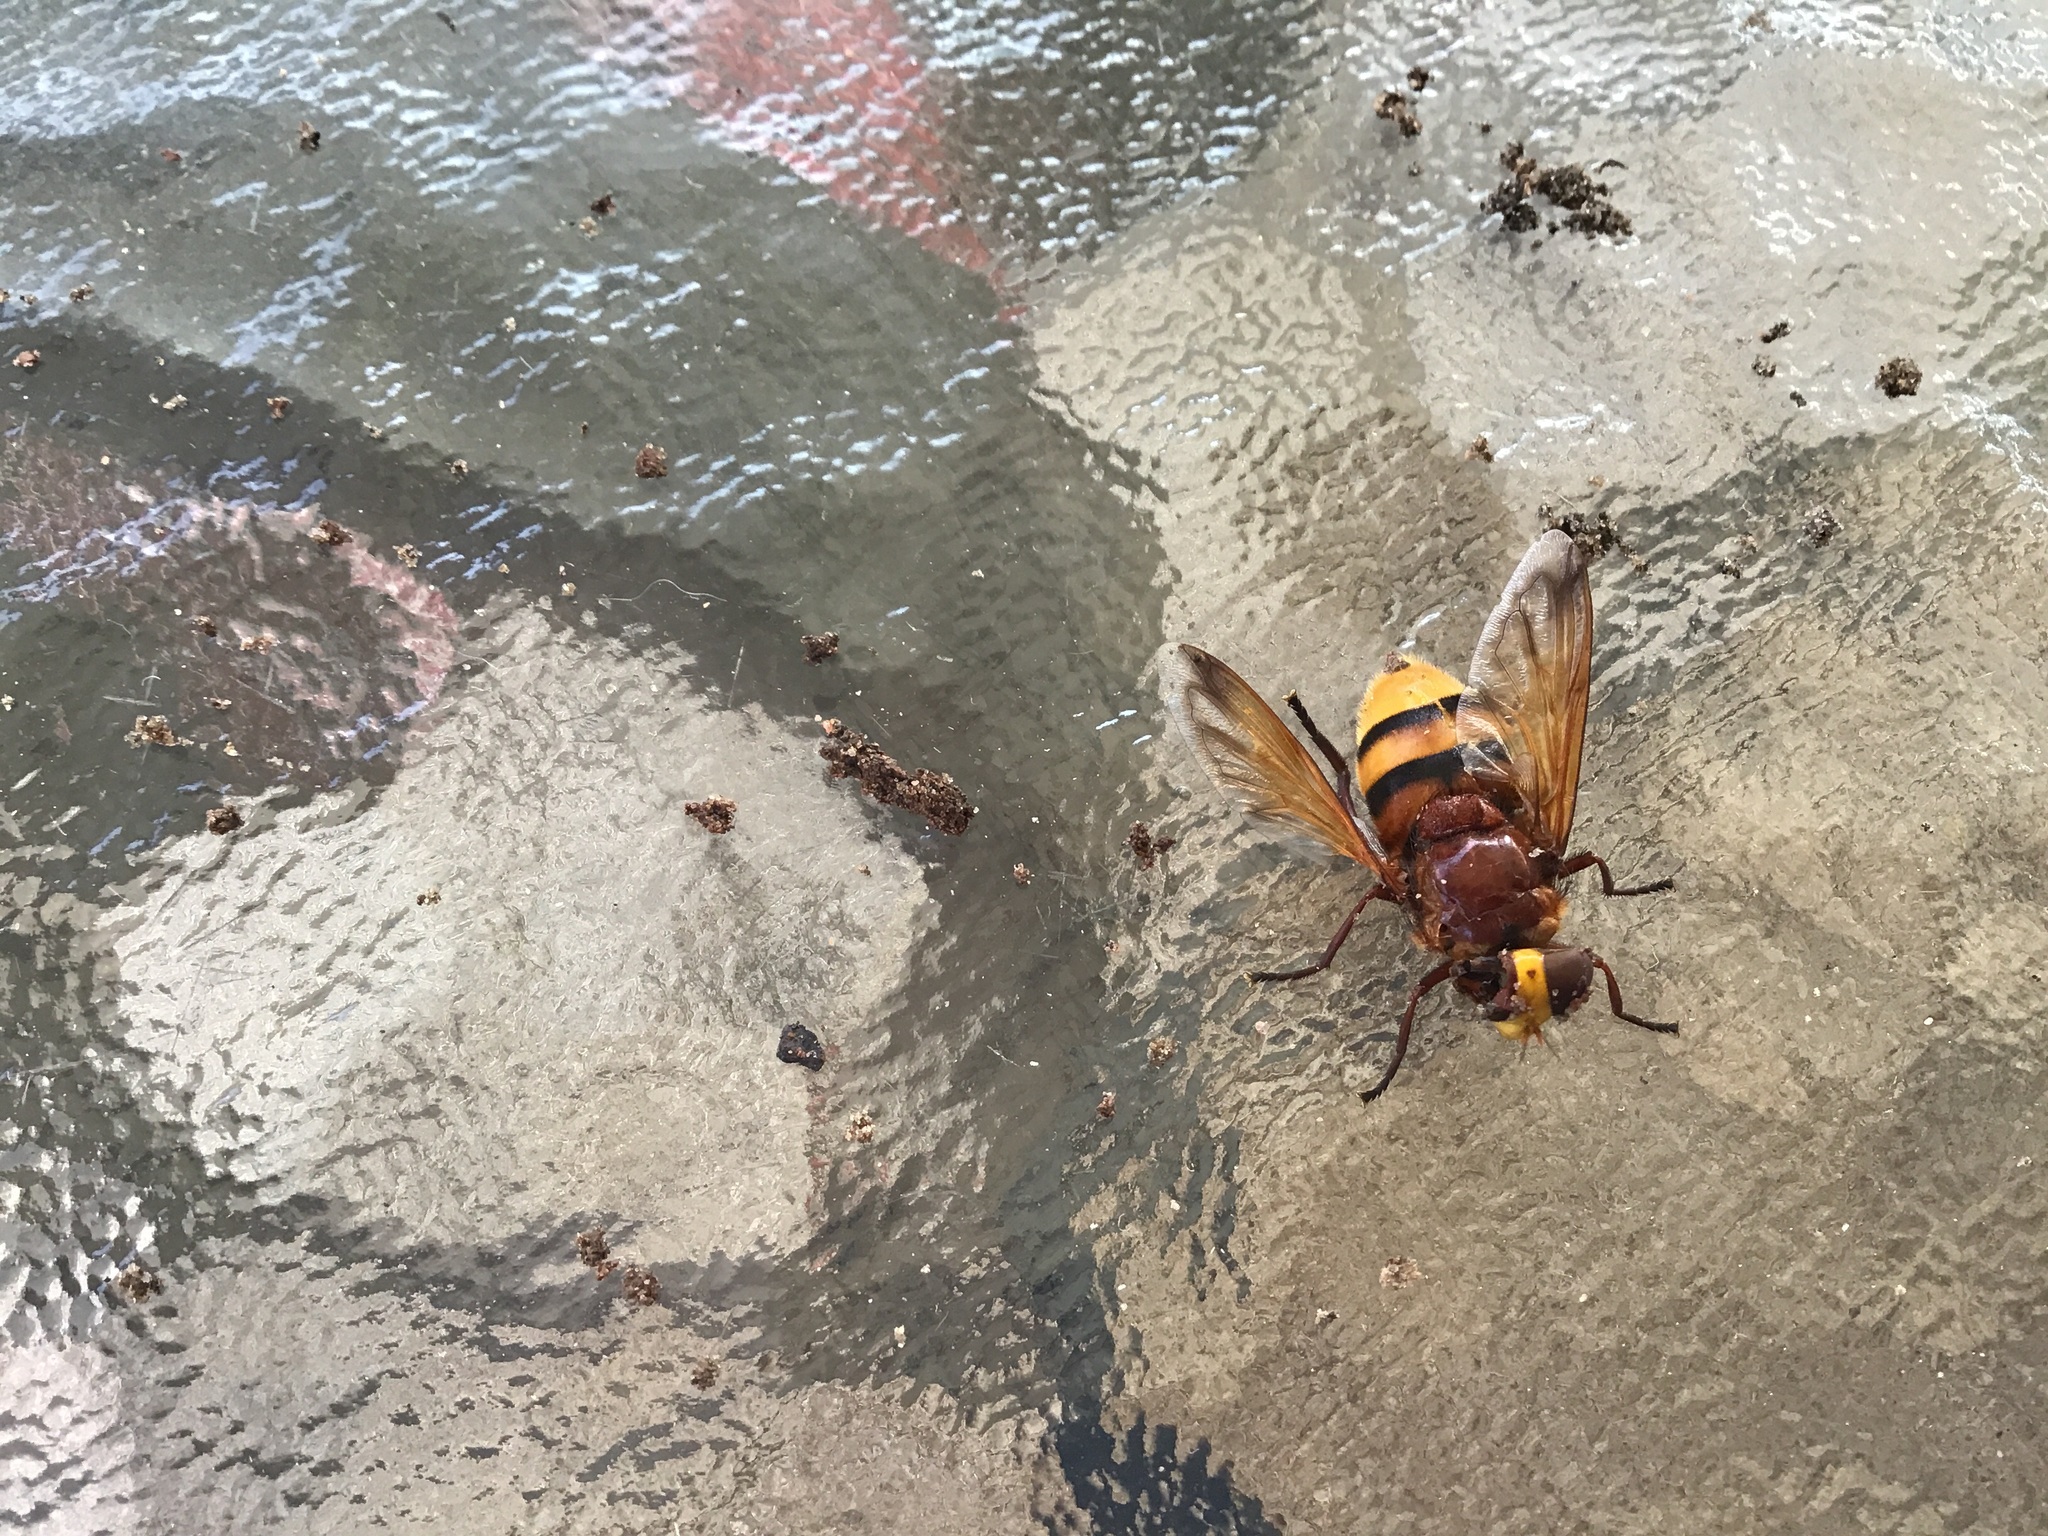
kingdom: Animalia
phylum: Arthropoda
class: Insecta
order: Diptera
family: Syrphidae
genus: Volucella
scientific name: Volucella zonaria
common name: Hornet hoverfly
